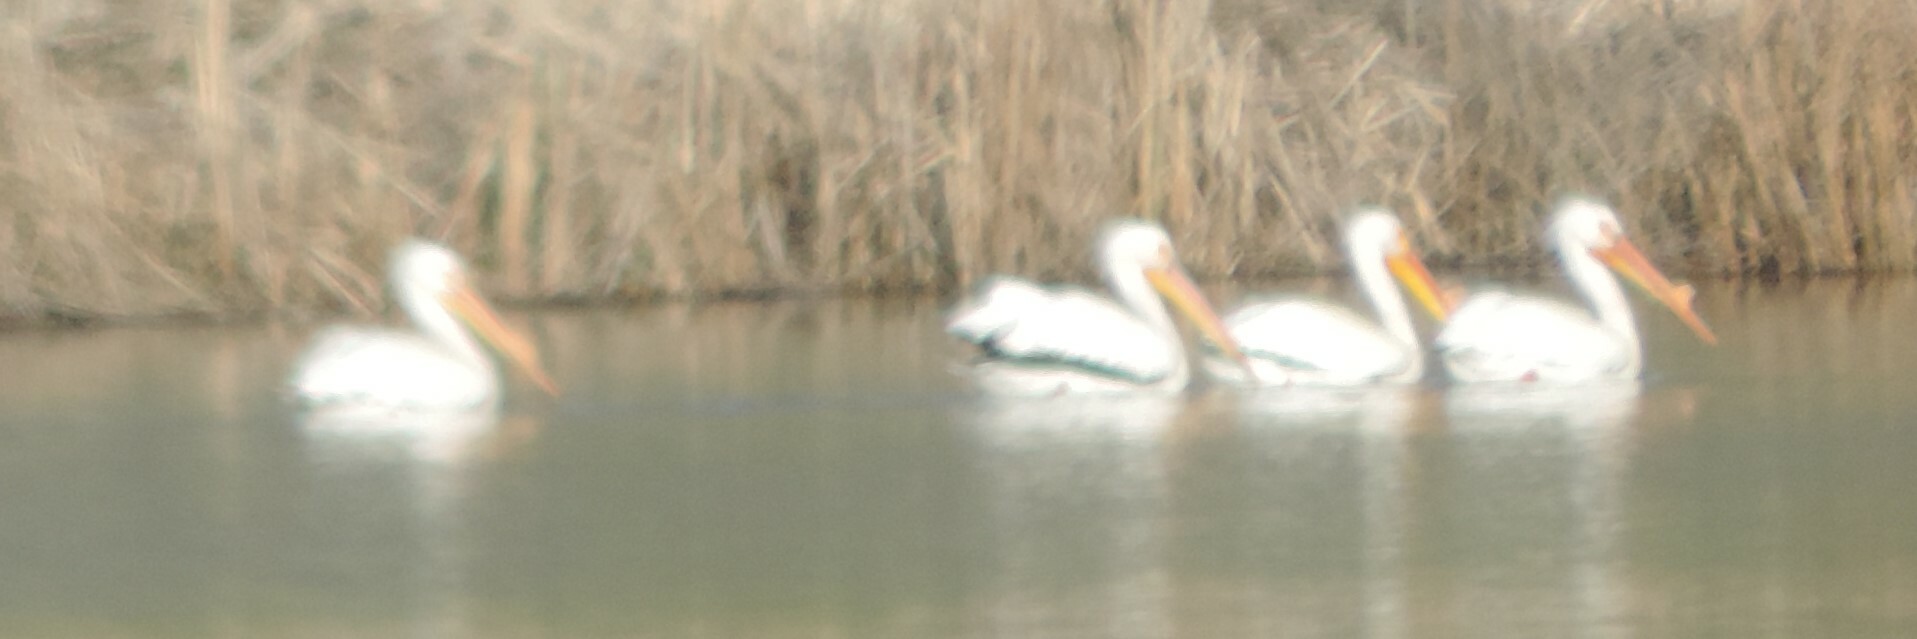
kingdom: Animalia
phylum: Chordata
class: Aves
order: Pelecaniformes
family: Pelecanidae
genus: Pelecanus
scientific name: Pelecanus erythrorhynchos
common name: American white pelican
